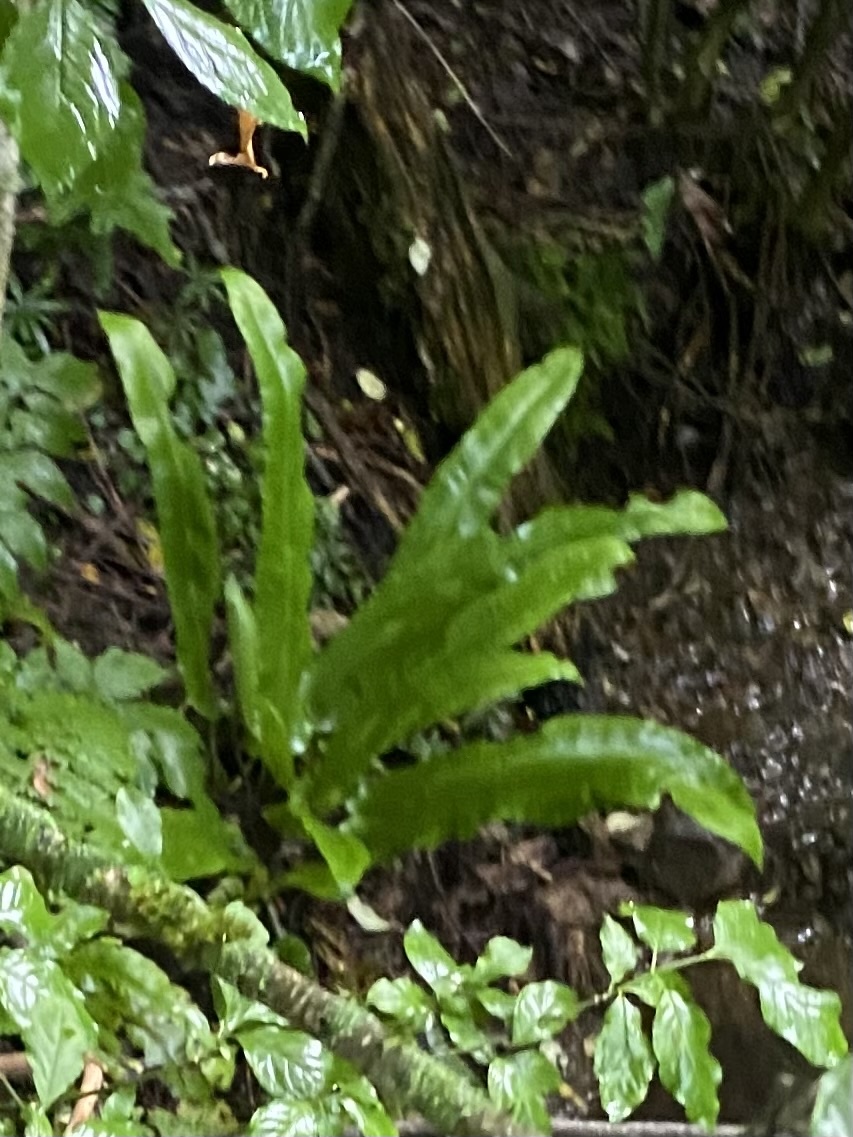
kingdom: Plantae
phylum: Tracheophyta
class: Polypodiopsida
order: Polypodiales
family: Aspleniaceae
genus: Asplenium
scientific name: Asplenium scolopendrium
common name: Hart's-tongue fern
